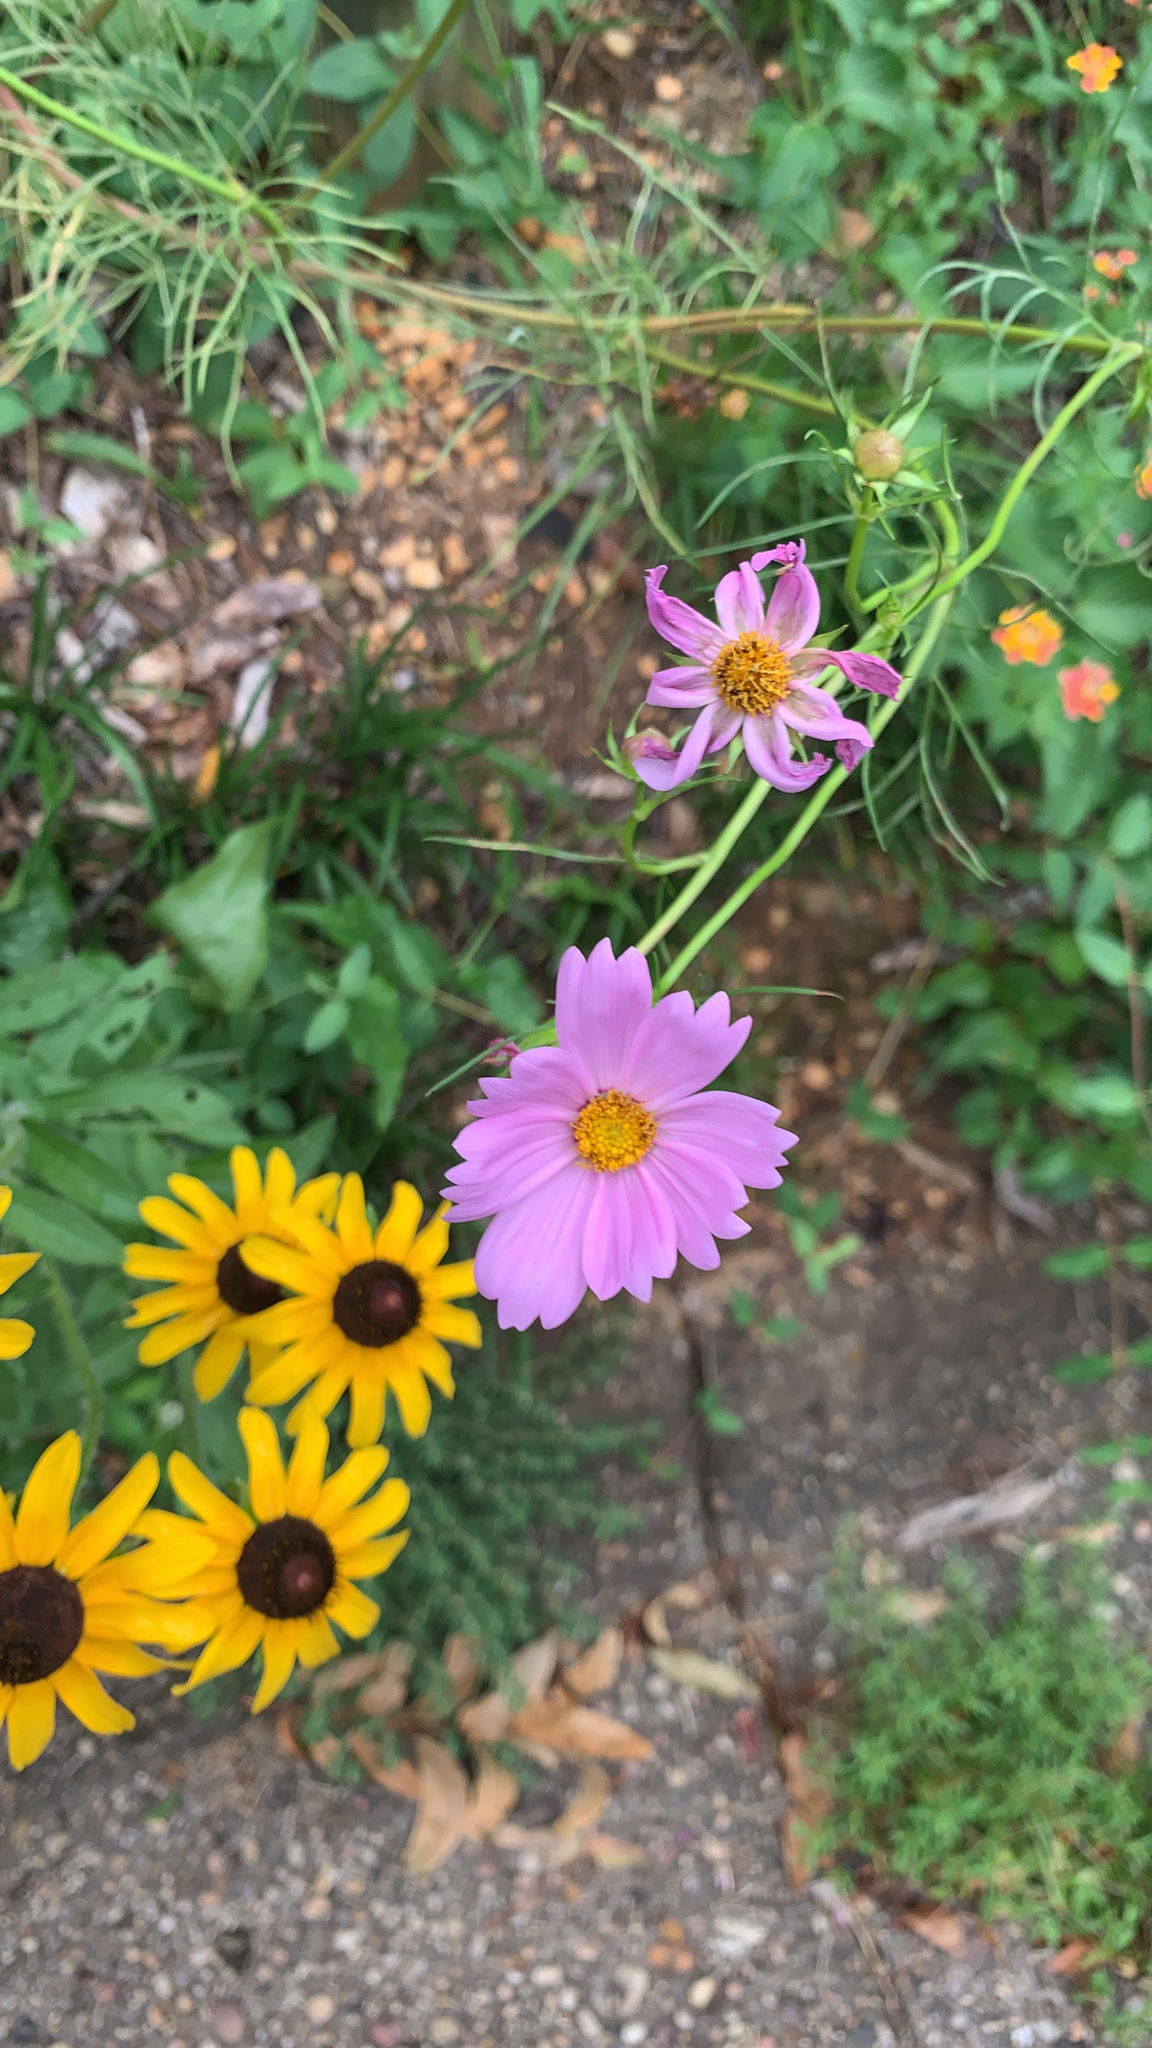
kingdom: Plantae
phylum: Tracheophyta
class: Magnoliopsida
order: Asterales
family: Asteraceae
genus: Cosmos
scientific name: Cosmos bipinnatus
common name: Garden cosmos
